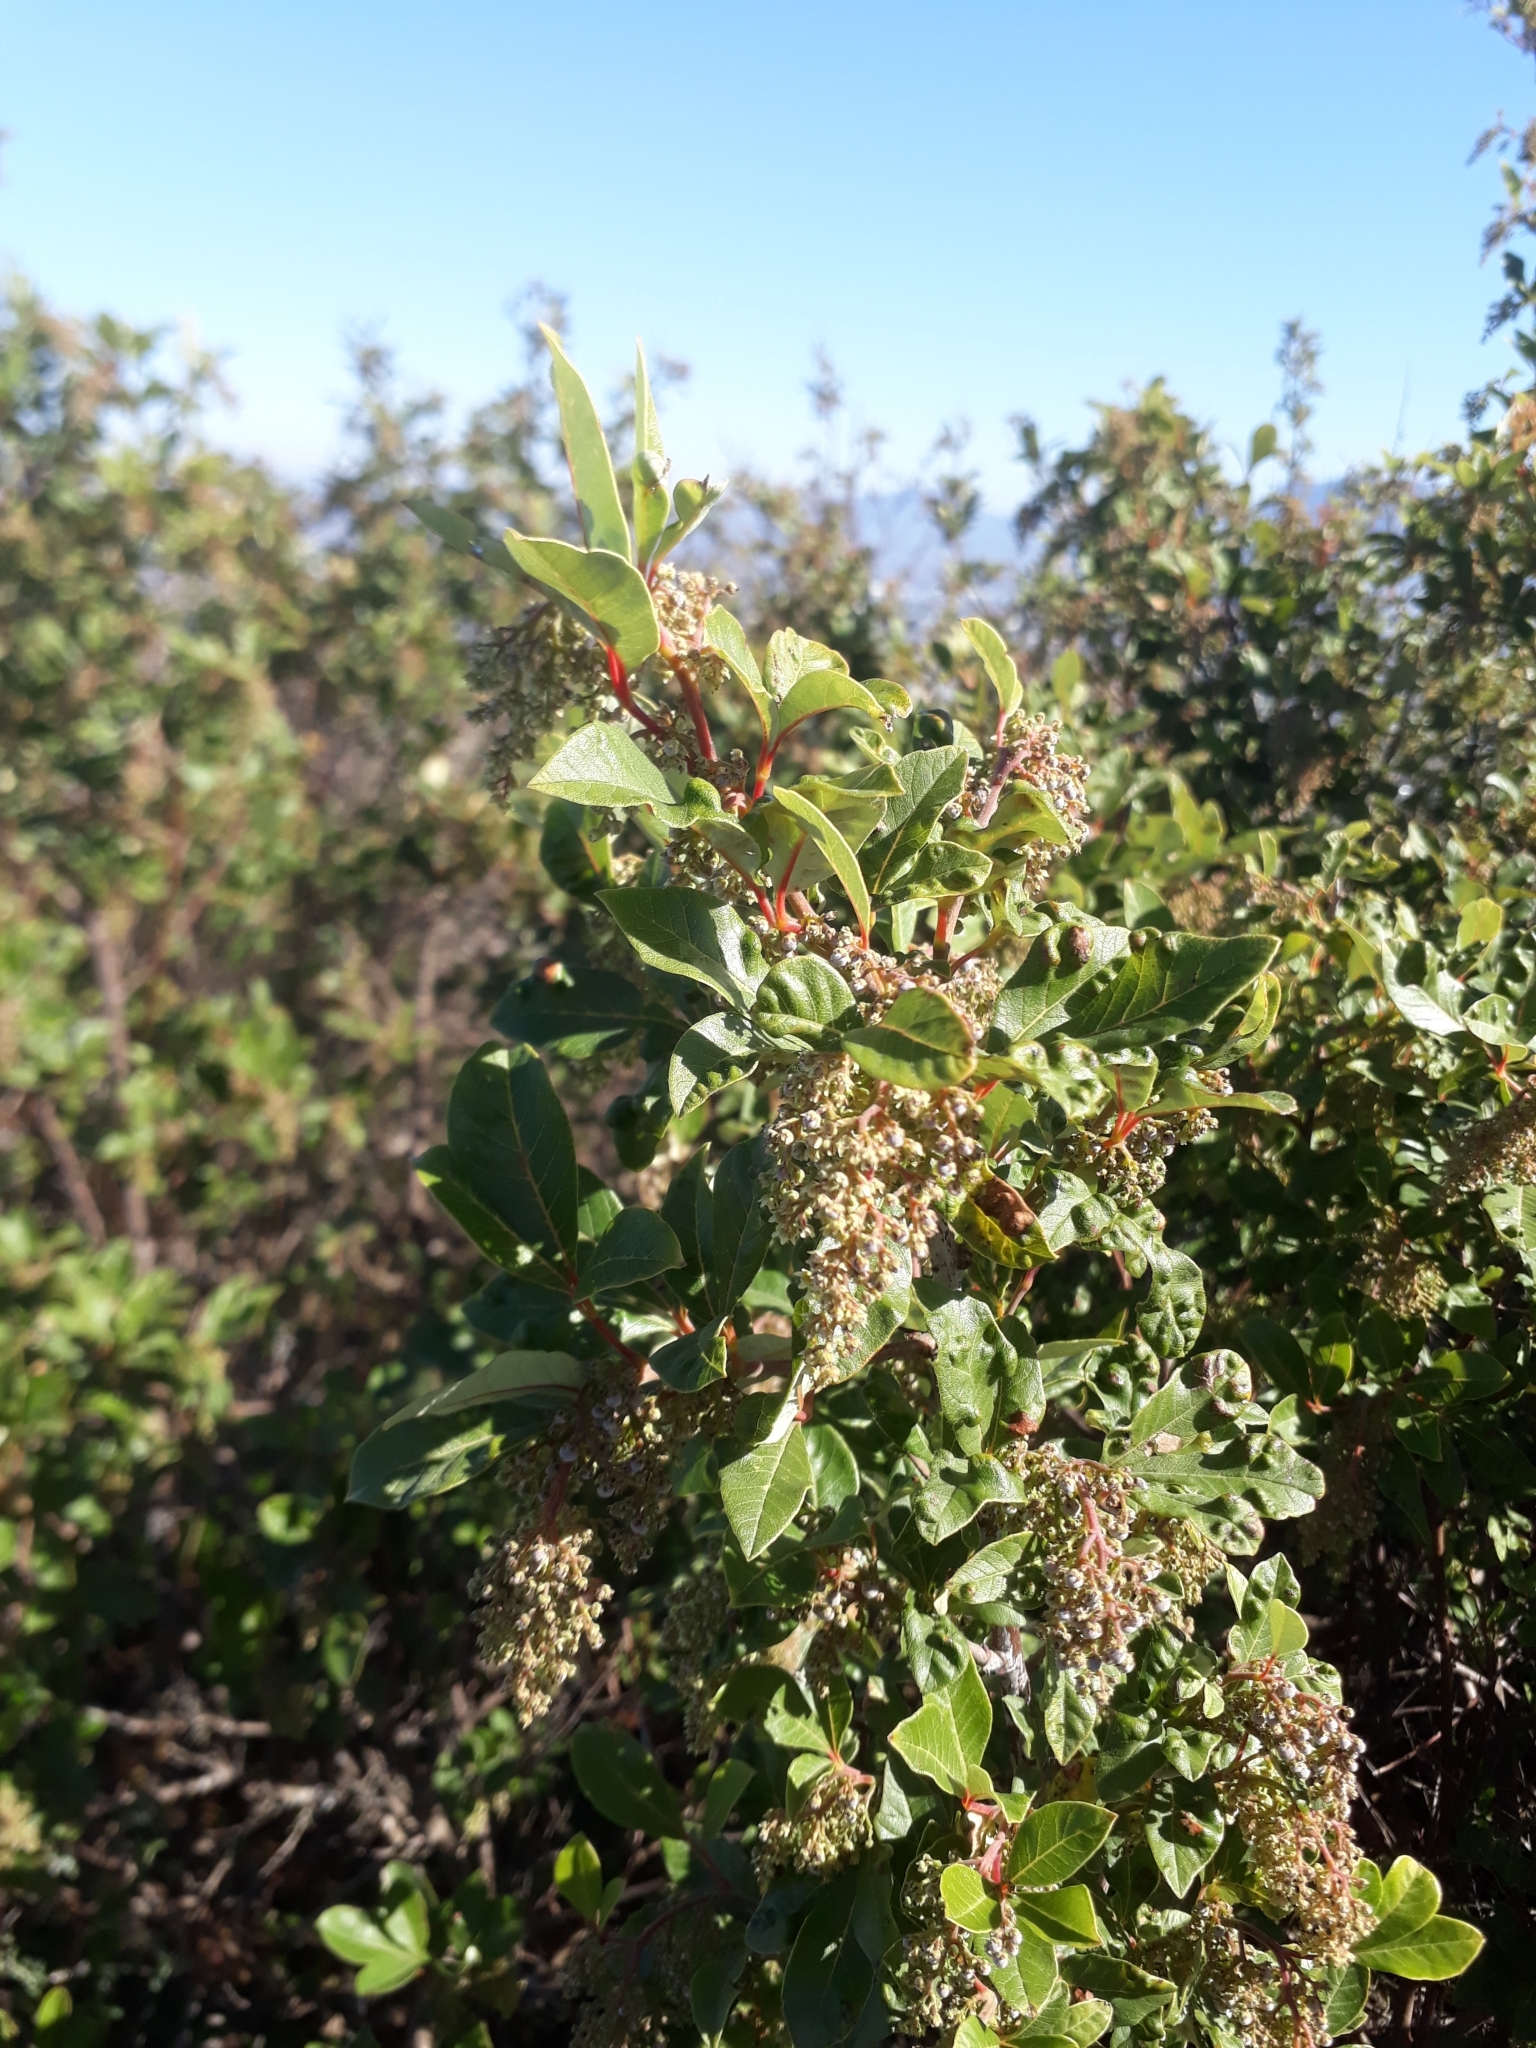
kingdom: Plantae
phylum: Tracheophyta
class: Magnoliopsida
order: Sapindales
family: Anacardiaceae
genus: Searsia
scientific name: Searsia tomentosa
